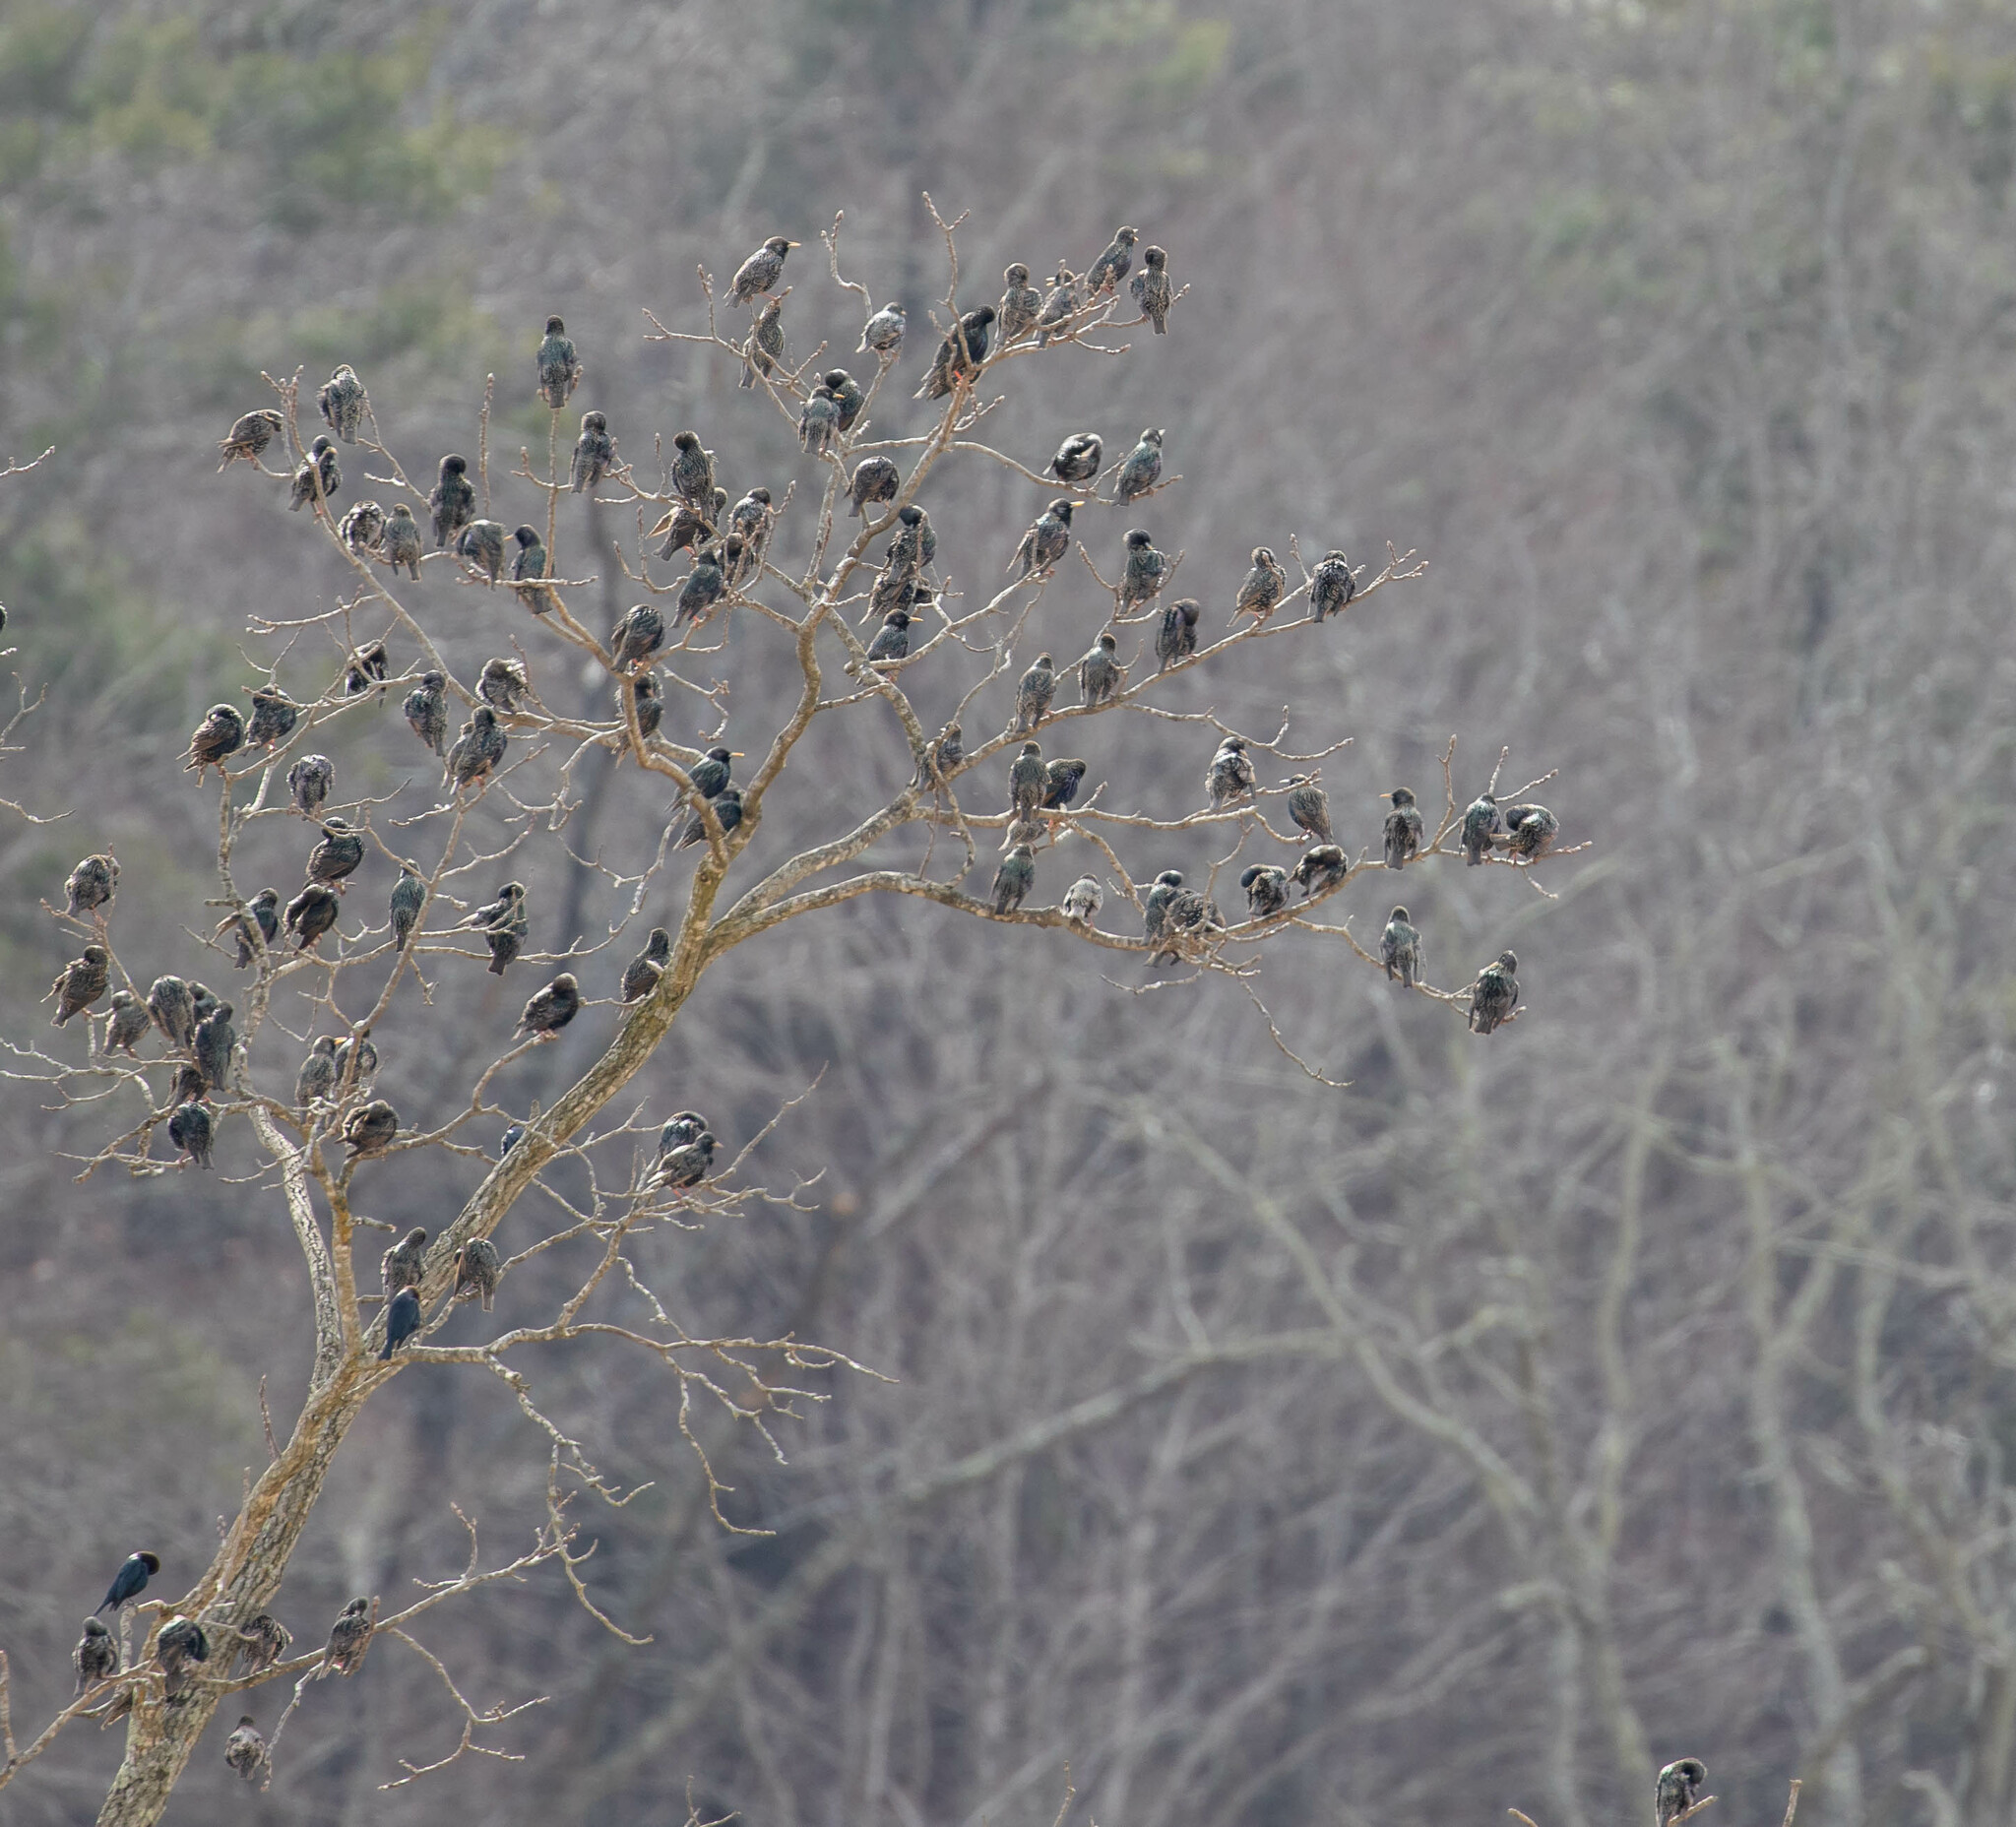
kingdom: Animalia
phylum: Chordata
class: Aves
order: Passeriformes
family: Sturnidae
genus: Sturnus
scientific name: Sturnus vulgaris
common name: Common starling
